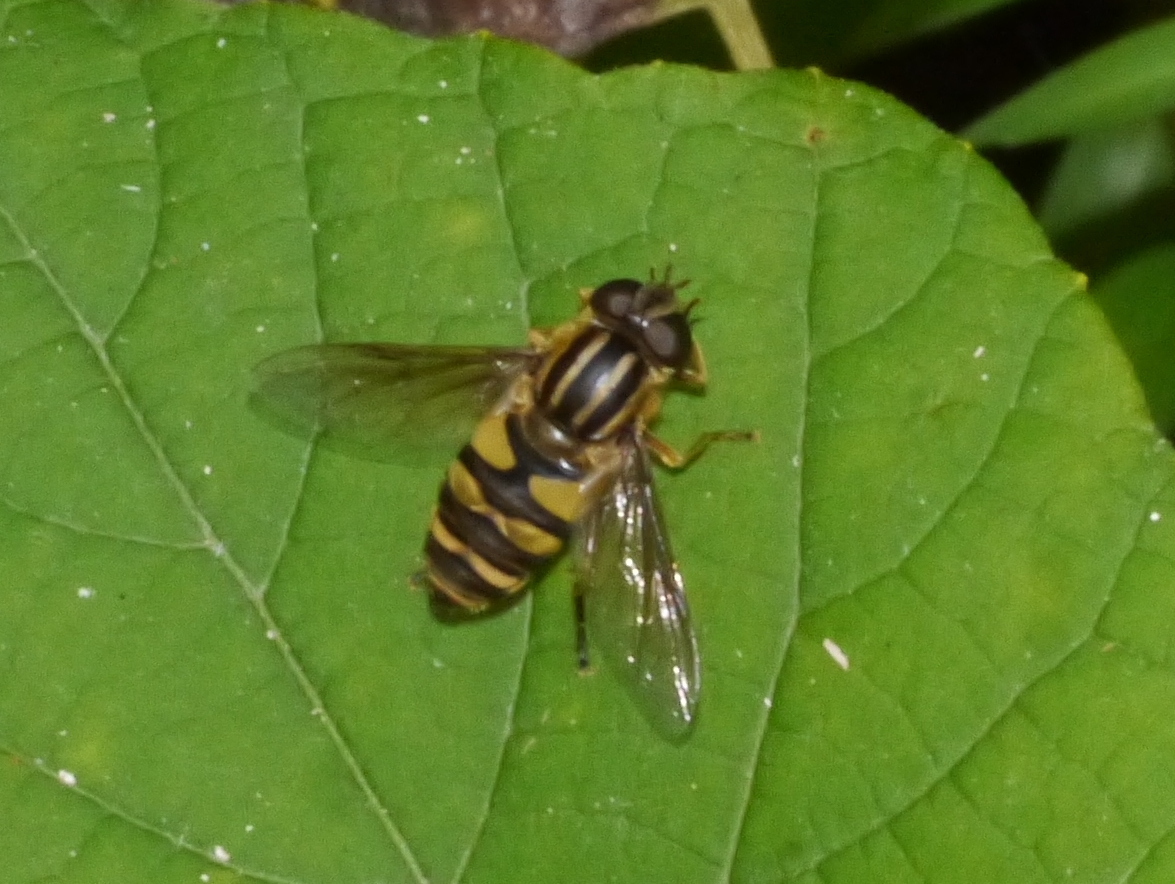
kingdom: Animalia
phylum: Arthropoda
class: Insecta
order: Diptera
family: Syrphidae
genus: Helophilus
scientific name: Helophilus fasciatus
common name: Narrow-headed marsh fly
